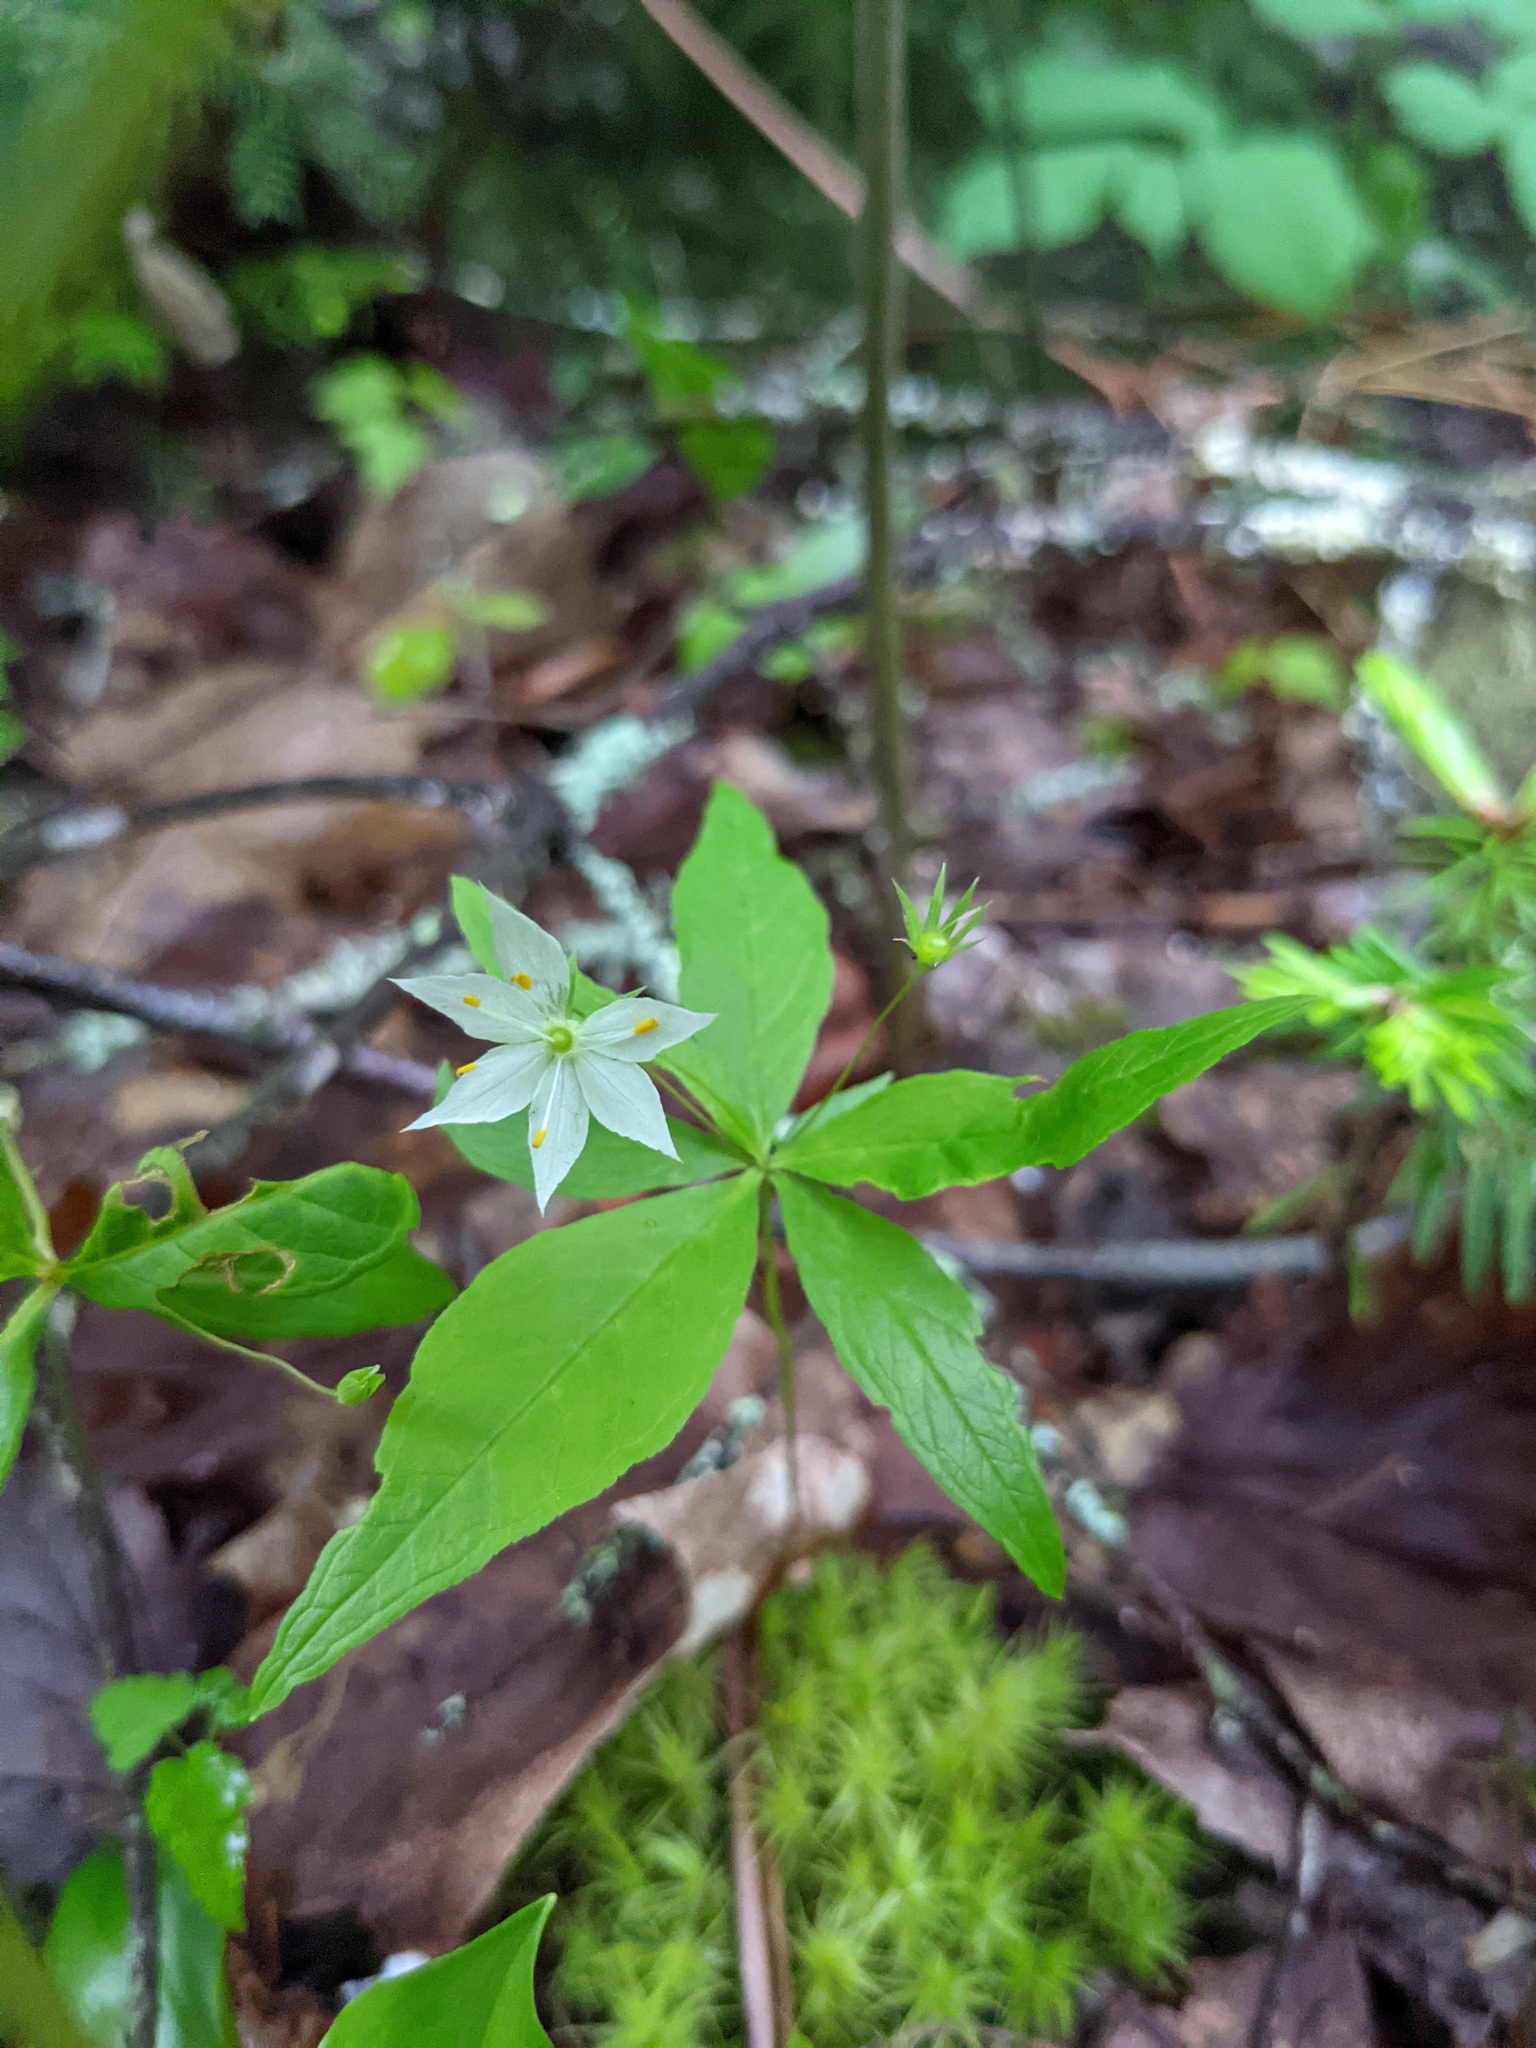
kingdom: Plantae
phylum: Tracheophyta
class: Magnoliopsida
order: Ericales
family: Primulaceae
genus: Lysimachia
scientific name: Lysimachia borealis
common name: American starflower
